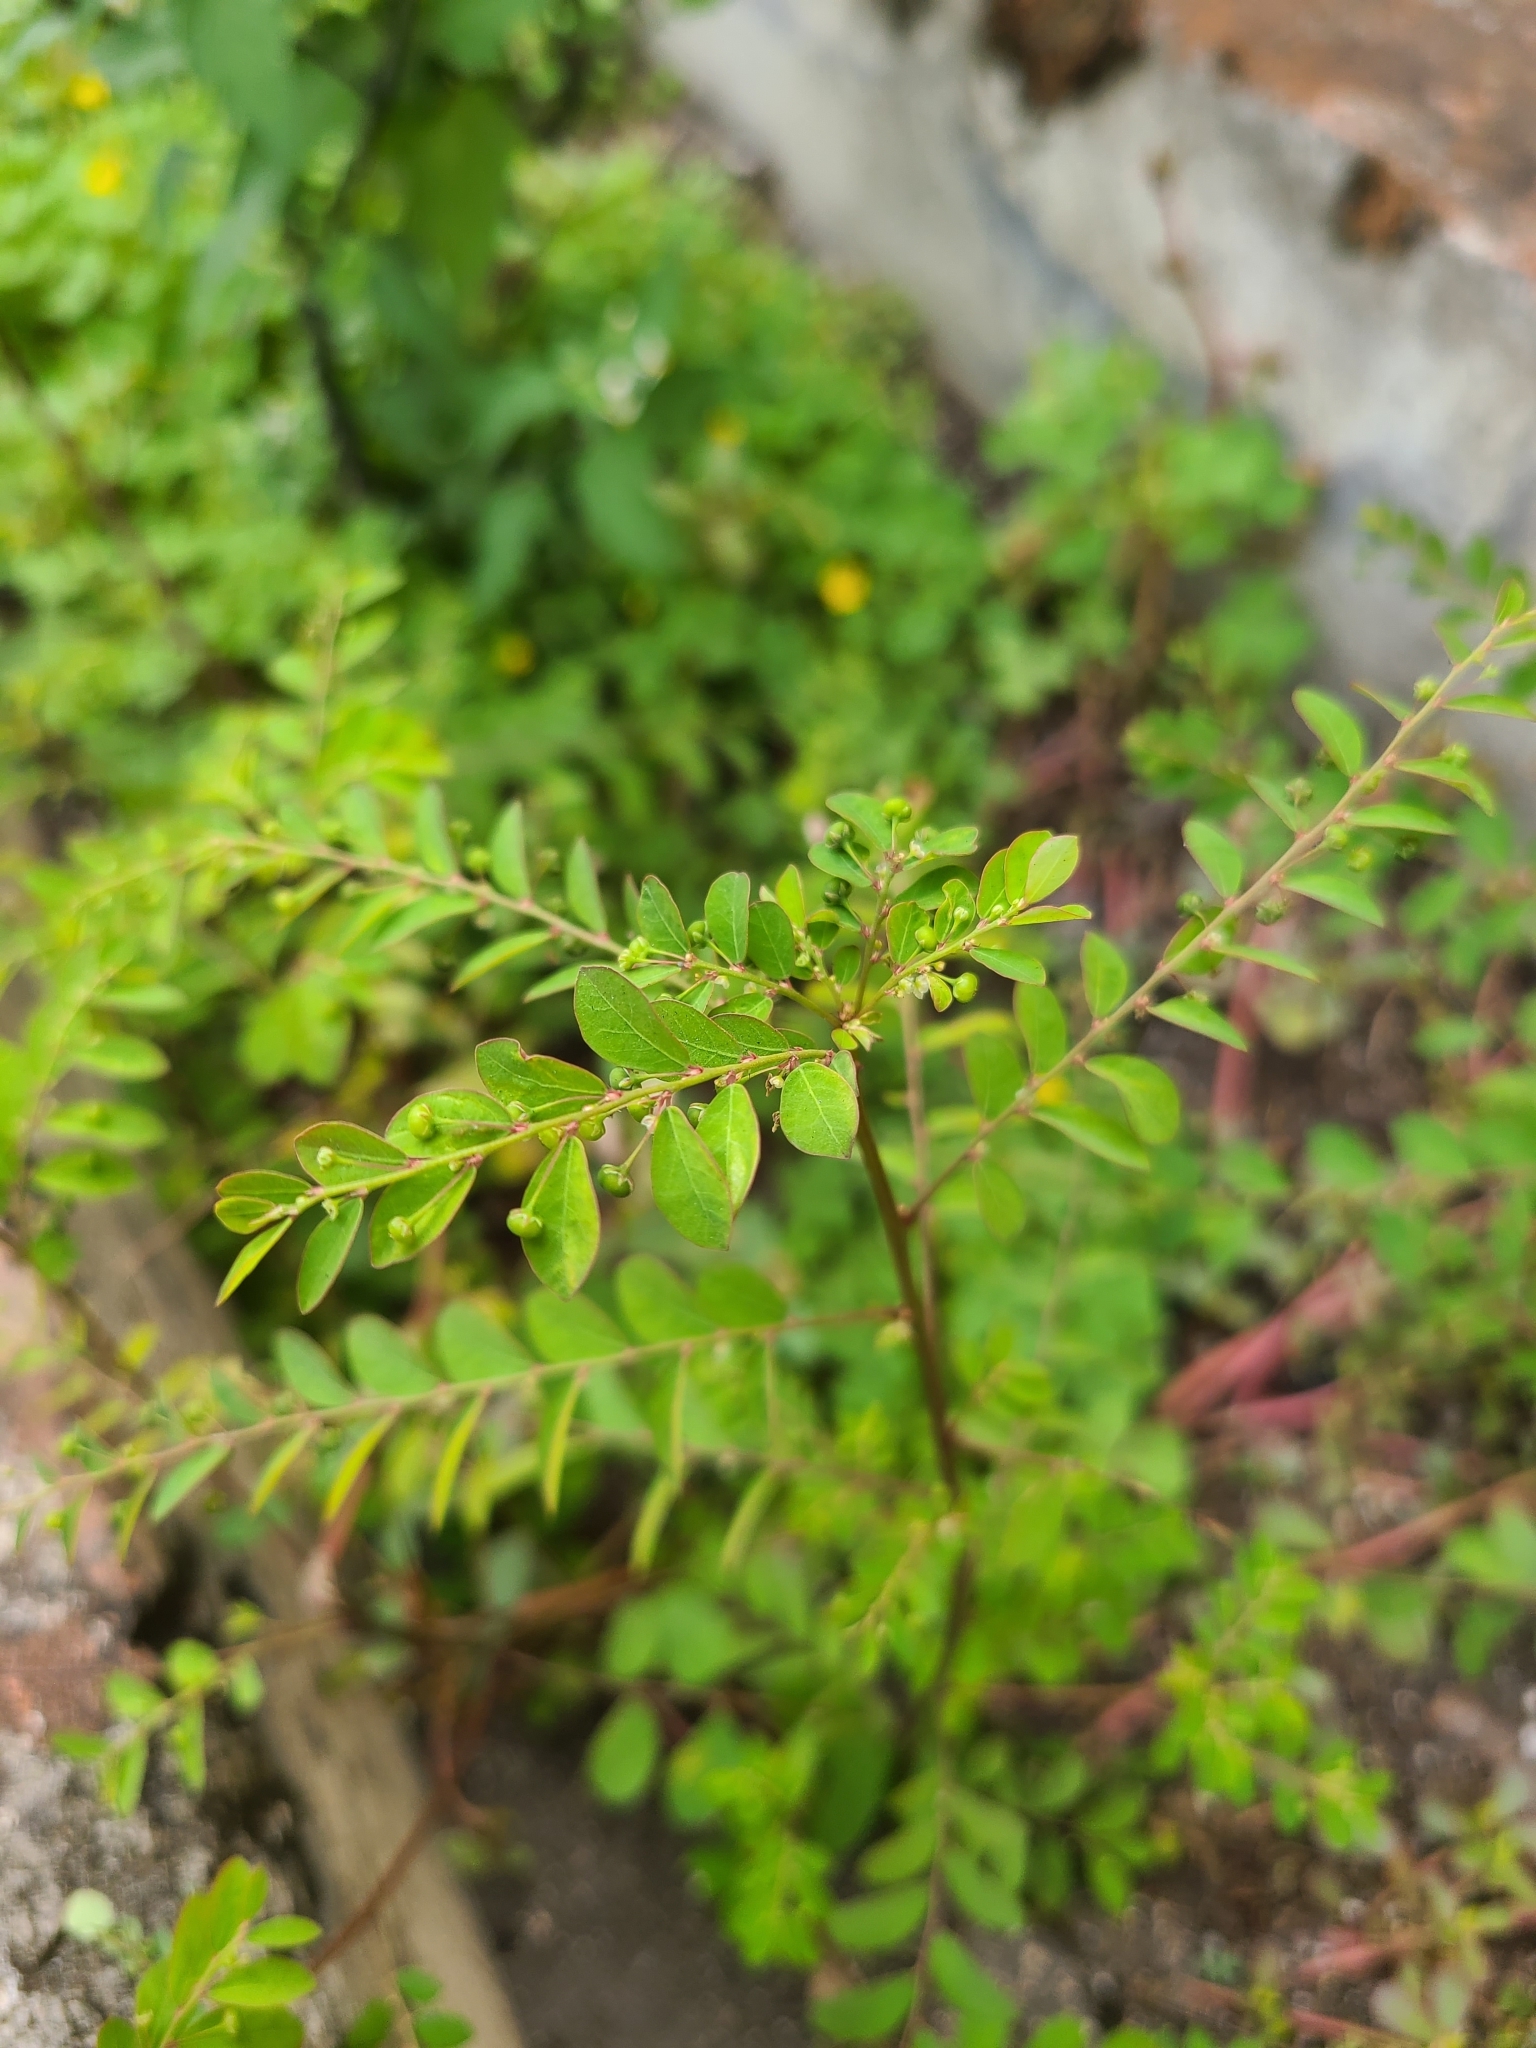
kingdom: Plantae
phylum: Tracheophyta
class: Magnoliopsida
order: Malpighiales
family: Phyllanthaceae
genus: Phyllanthus
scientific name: Phyllanthus tenellus
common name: Mascarene island leaf-flower
